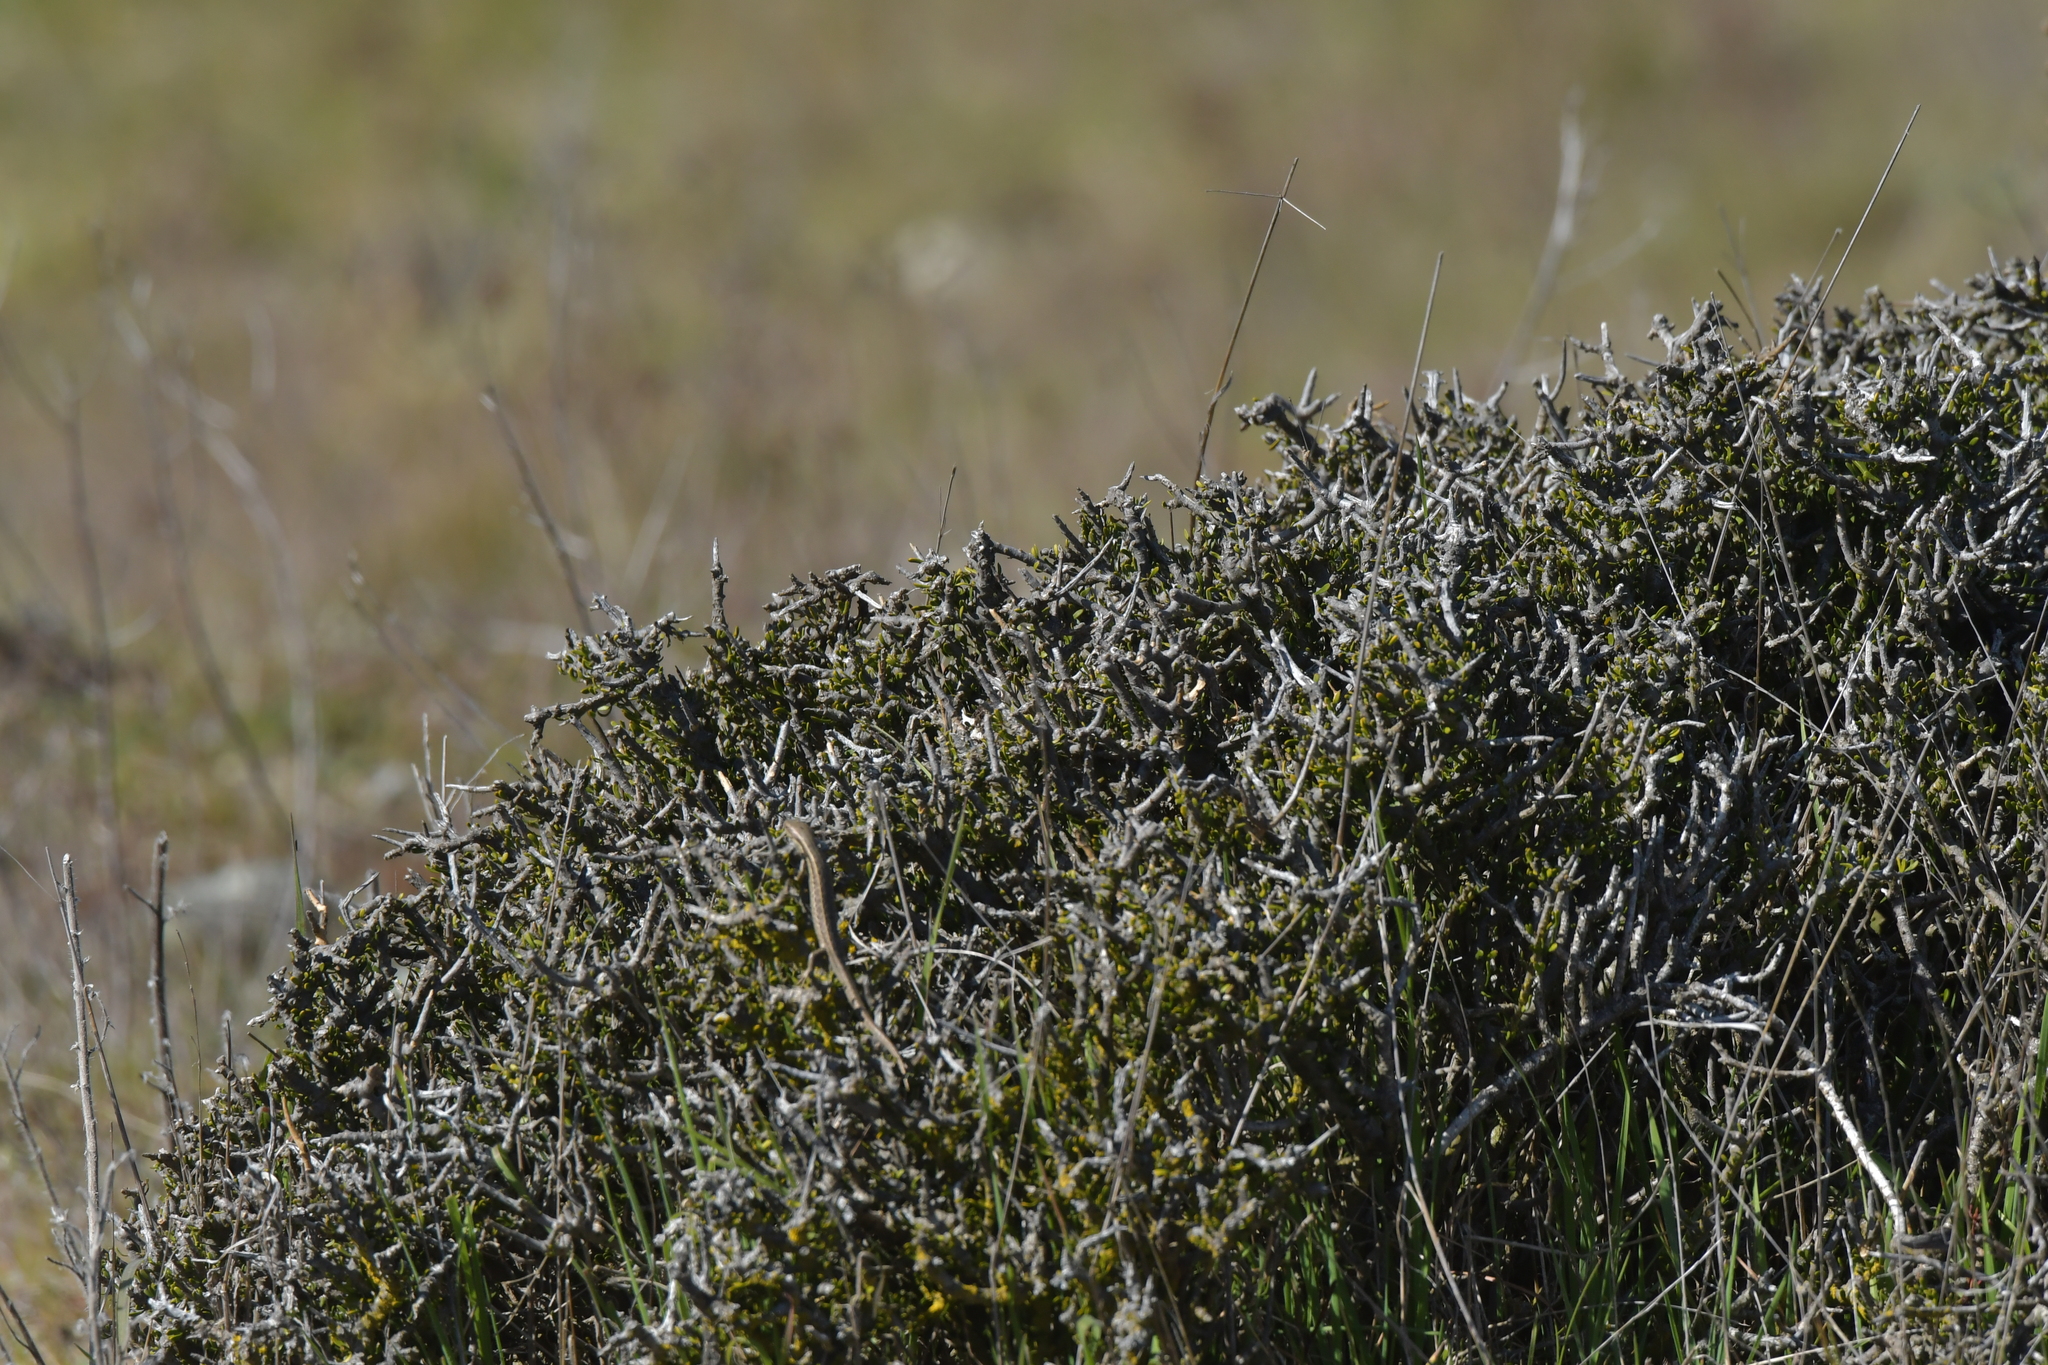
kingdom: Plantae
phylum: Tracheophyta
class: Magnoliopsida
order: Malpighiales
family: Violaceae
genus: Melicytus
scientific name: Melicytus alpinus
